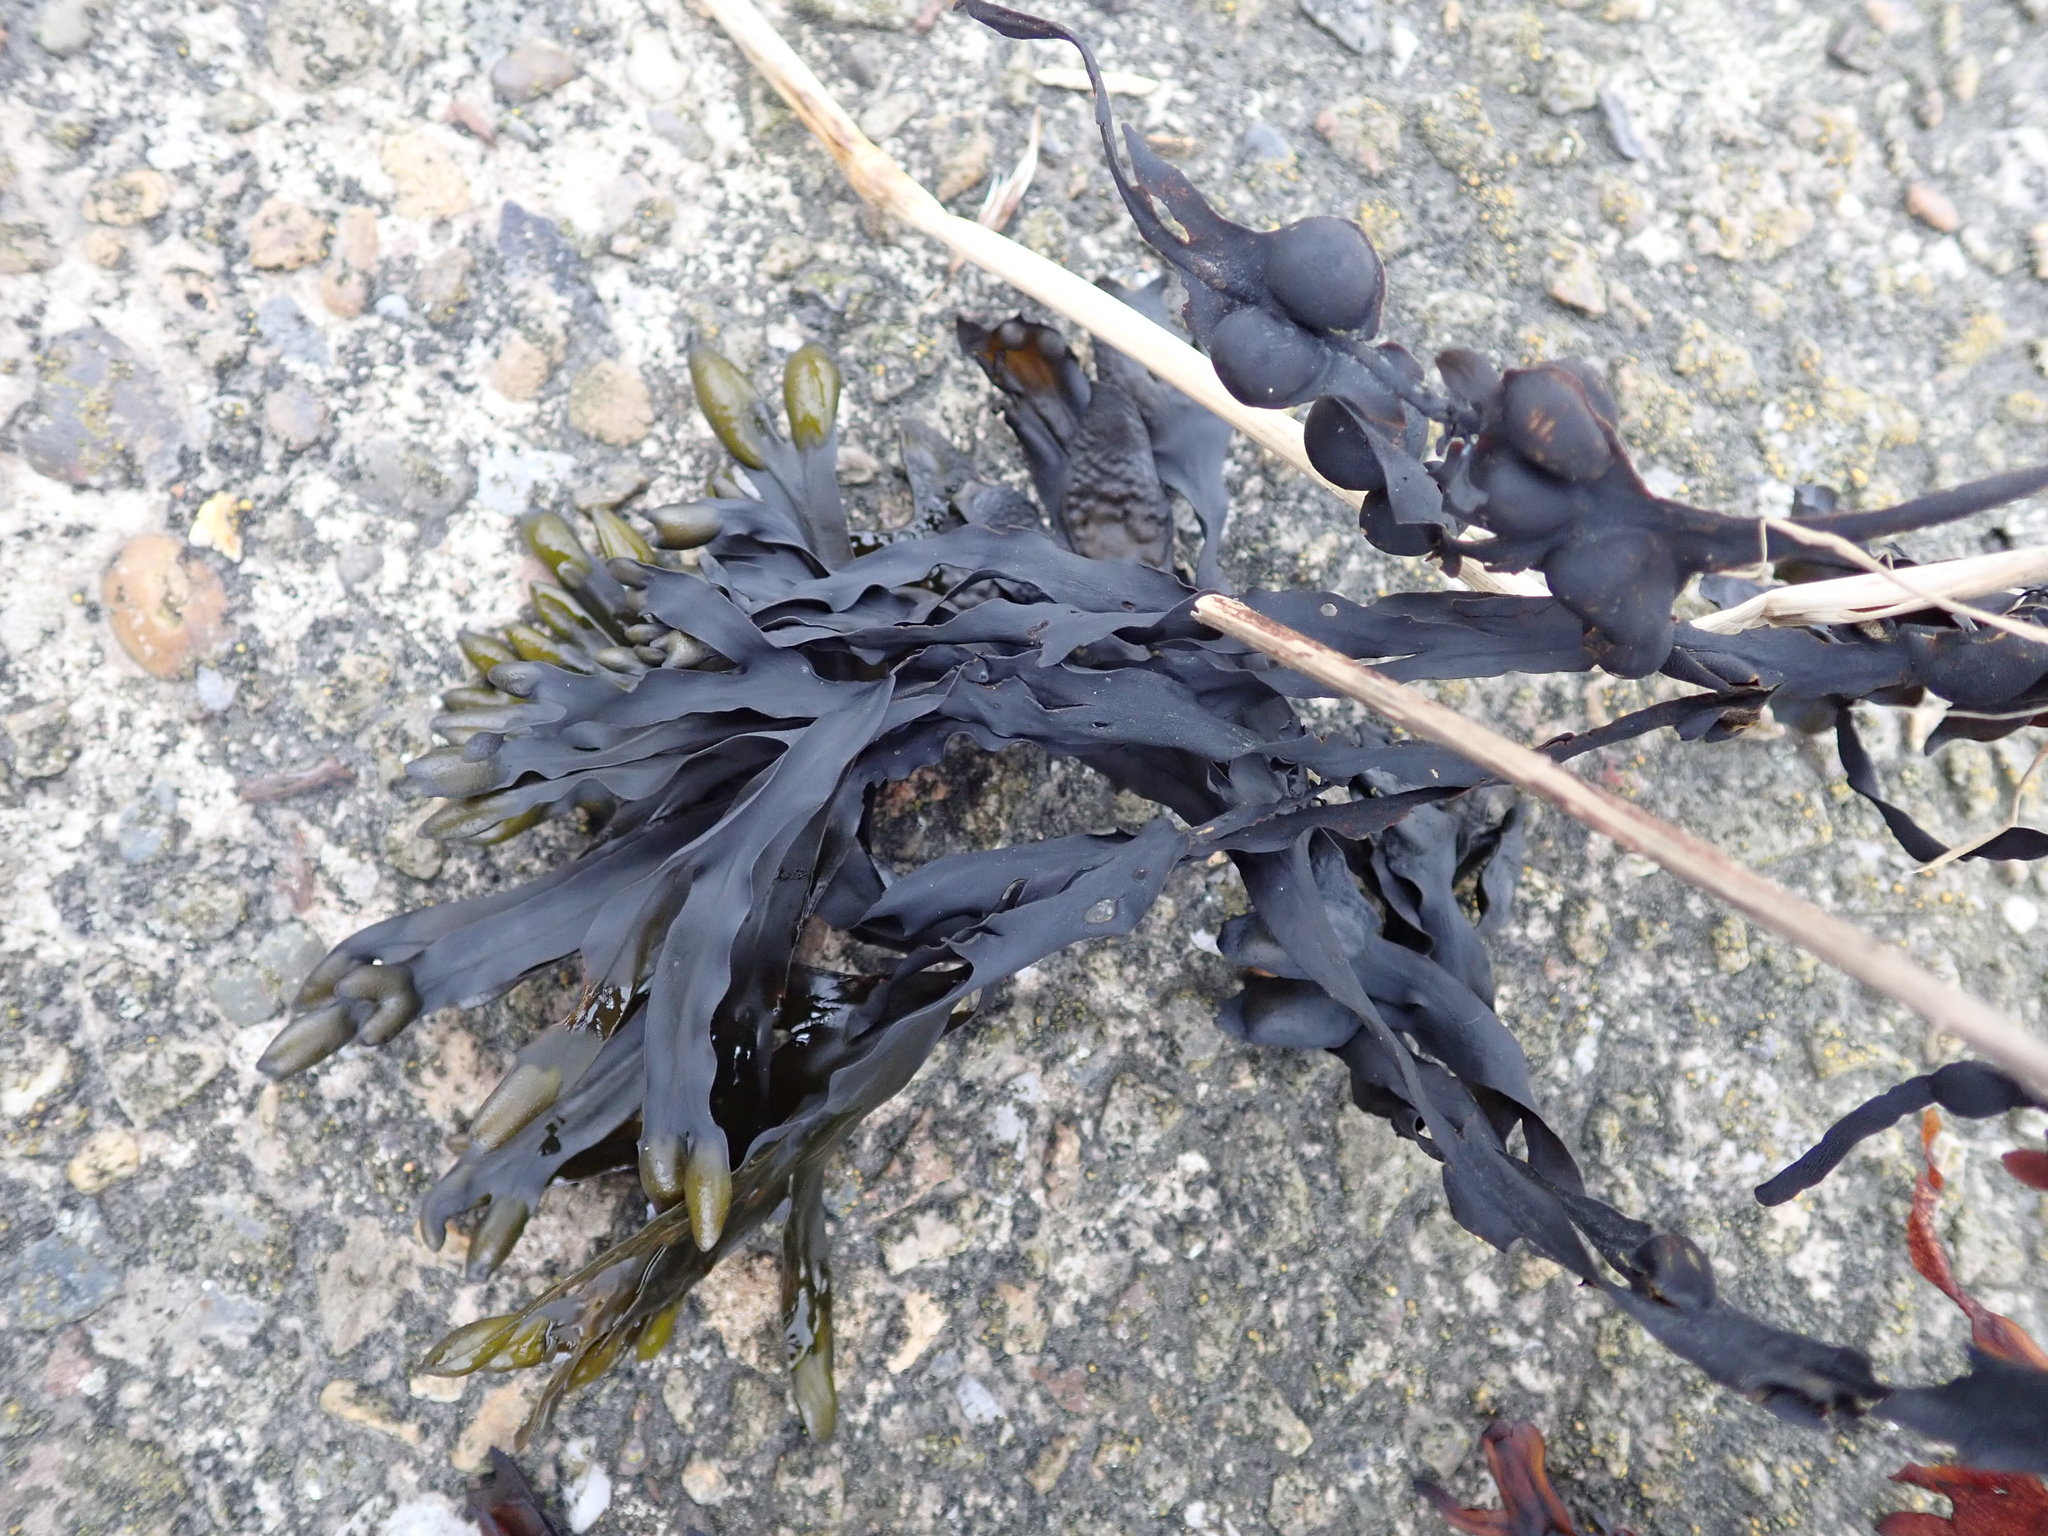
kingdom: Chromista
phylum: Ochrophyta
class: Phaeophyceae
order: Fucales
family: Fucaceae
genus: Fucus
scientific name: Fucus vesiculosus
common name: Bladder wrack
